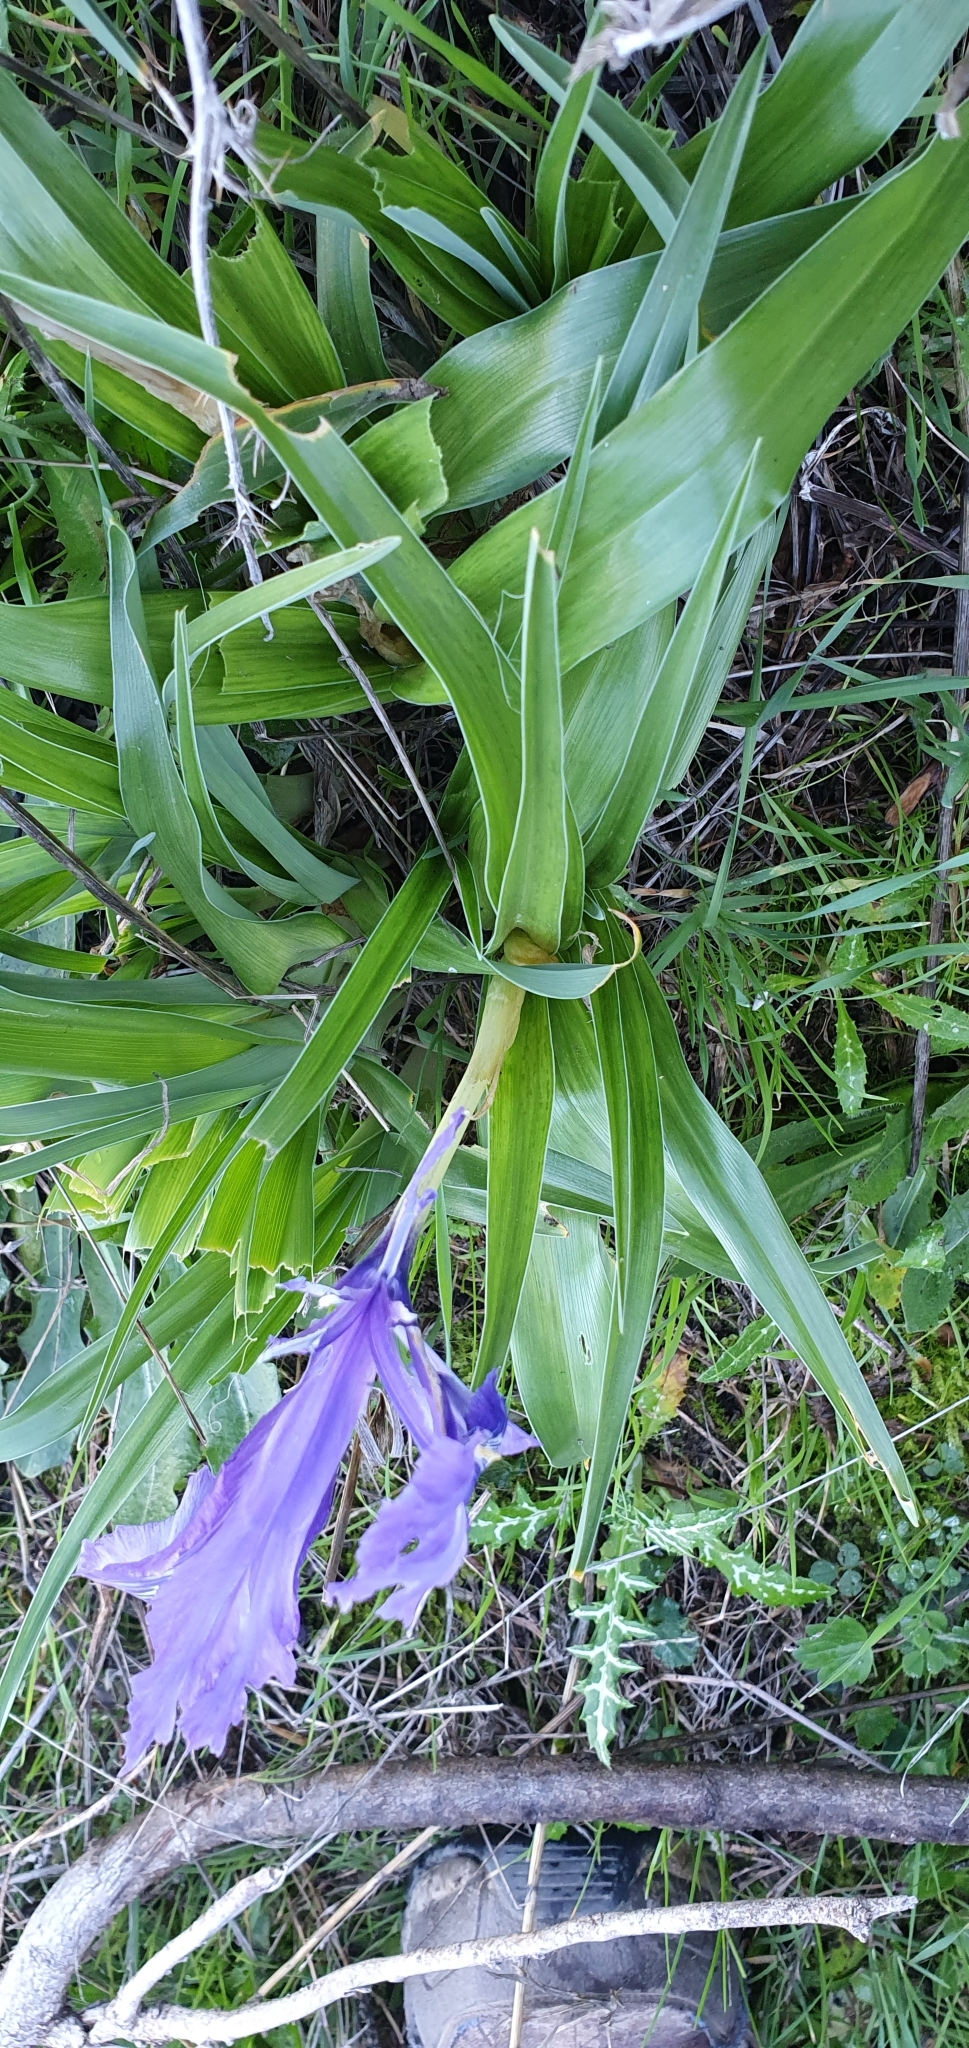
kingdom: Plantae
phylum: Tracheophyta
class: Liliopsida
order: Asparagales
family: Iridaceae
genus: Iris
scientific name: Iris planifolia
